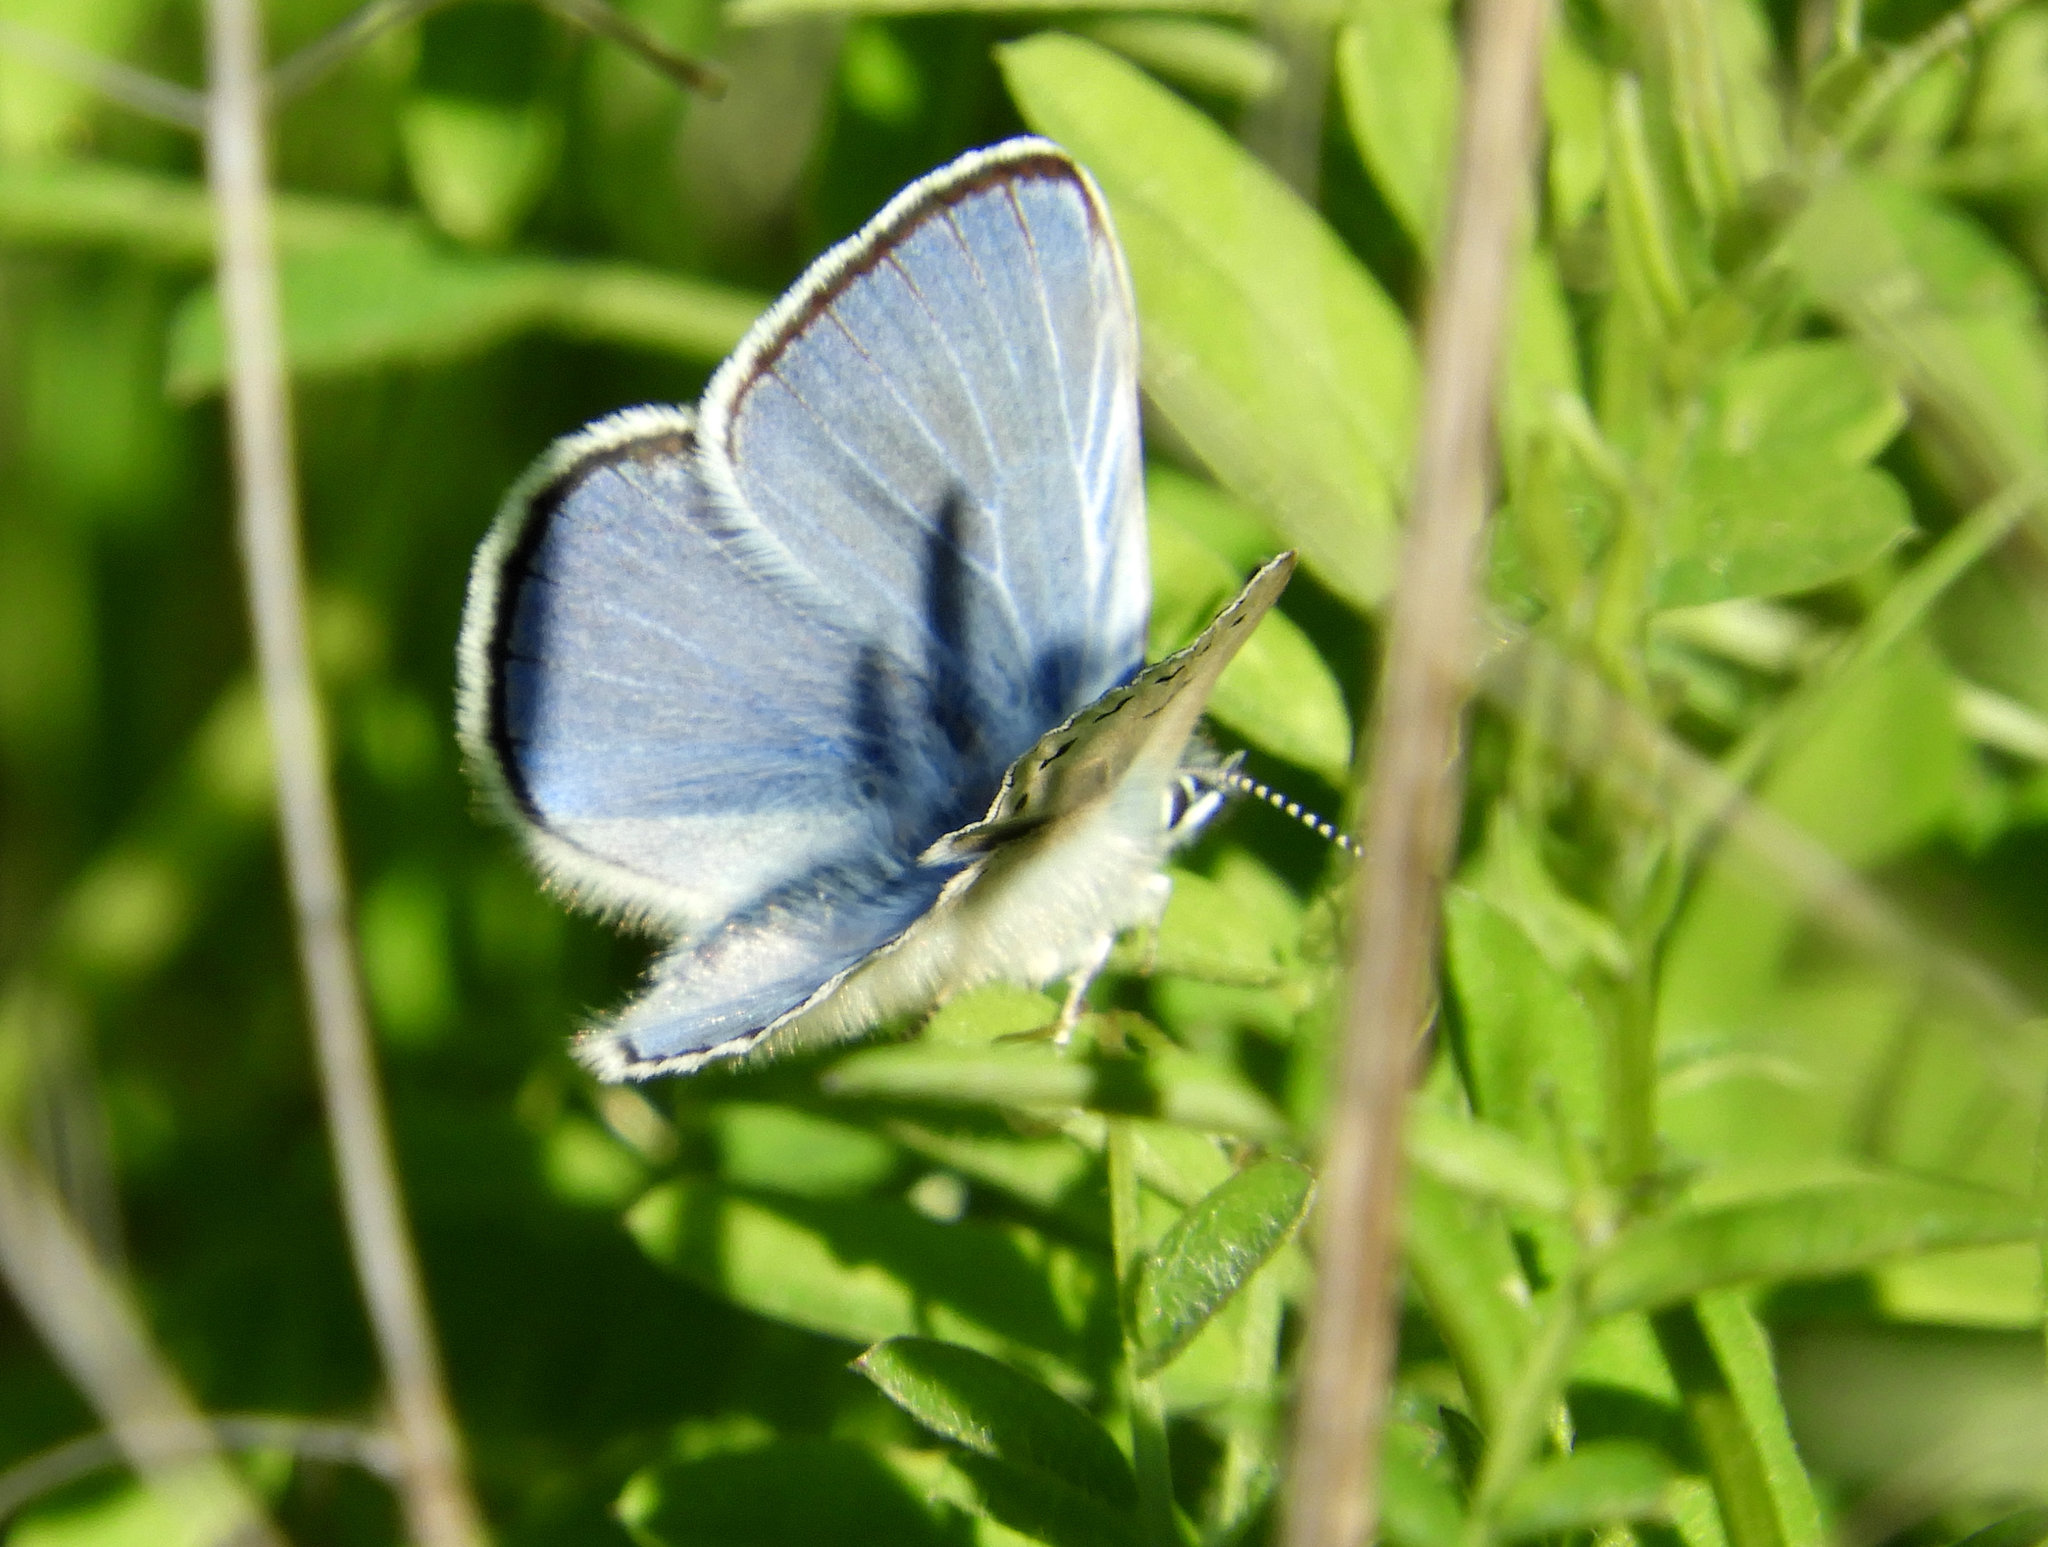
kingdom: Animalia
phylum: Arthropoda
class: Insecta
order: Lepidoptera
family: Lycaenidae
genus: Glaucopsyche
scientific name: Glaucopsyche lygdamus
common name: Silvery blue
